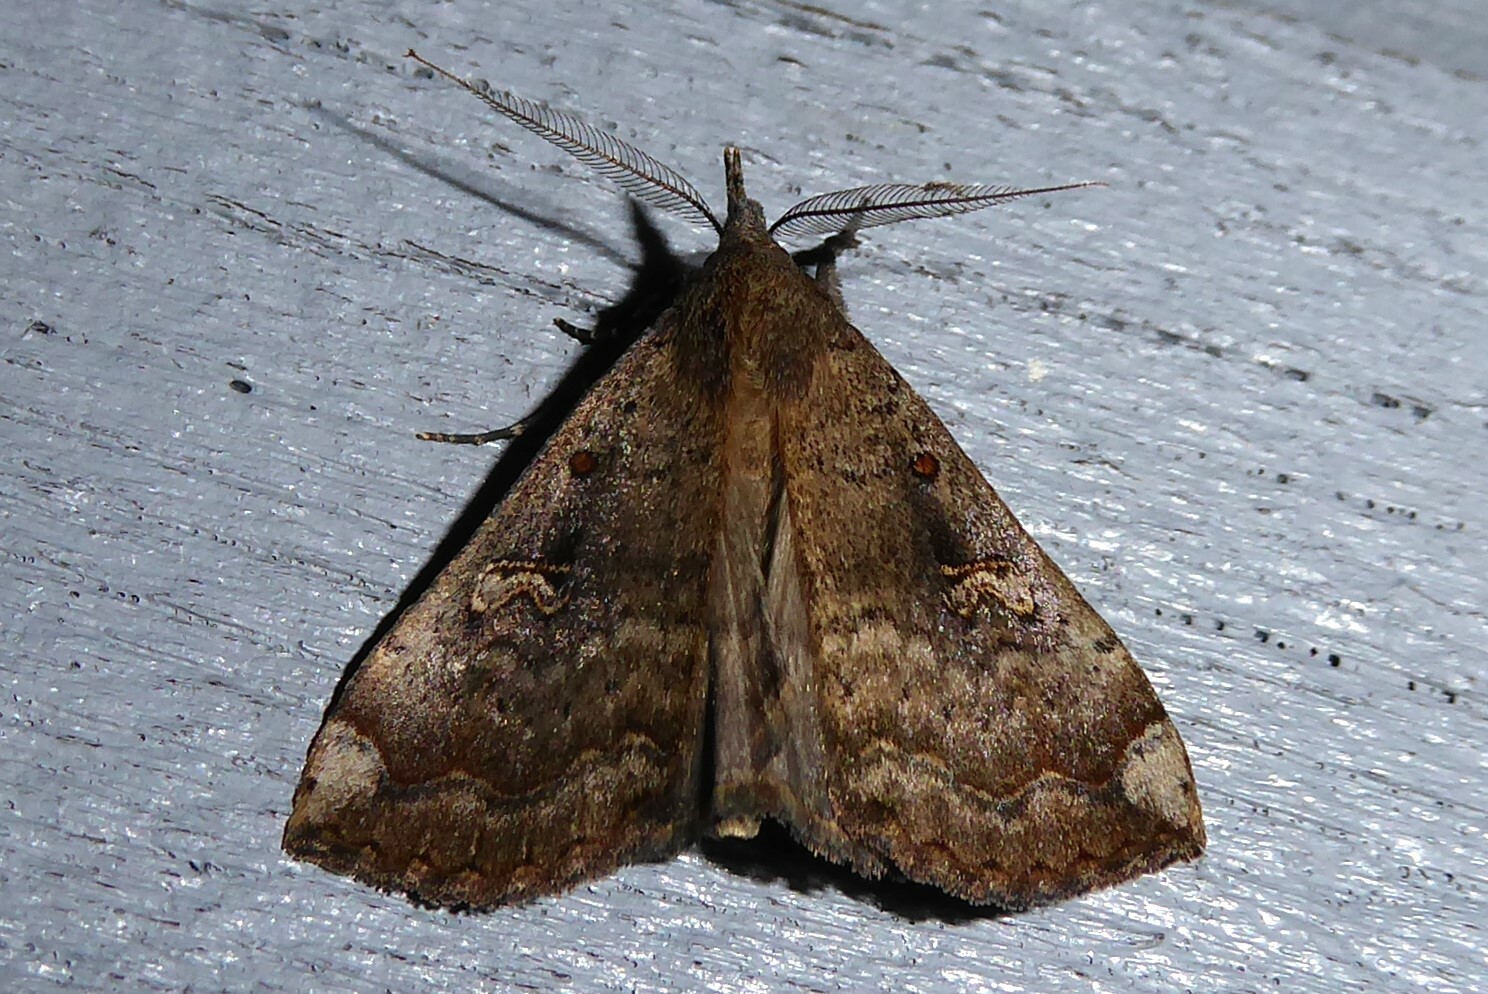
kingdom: Animalia
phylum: Arthropoda
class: Insecta
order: Lepidoptera
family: Erebidae
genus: Rhapsa
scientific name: Rhapsa scotosialis
